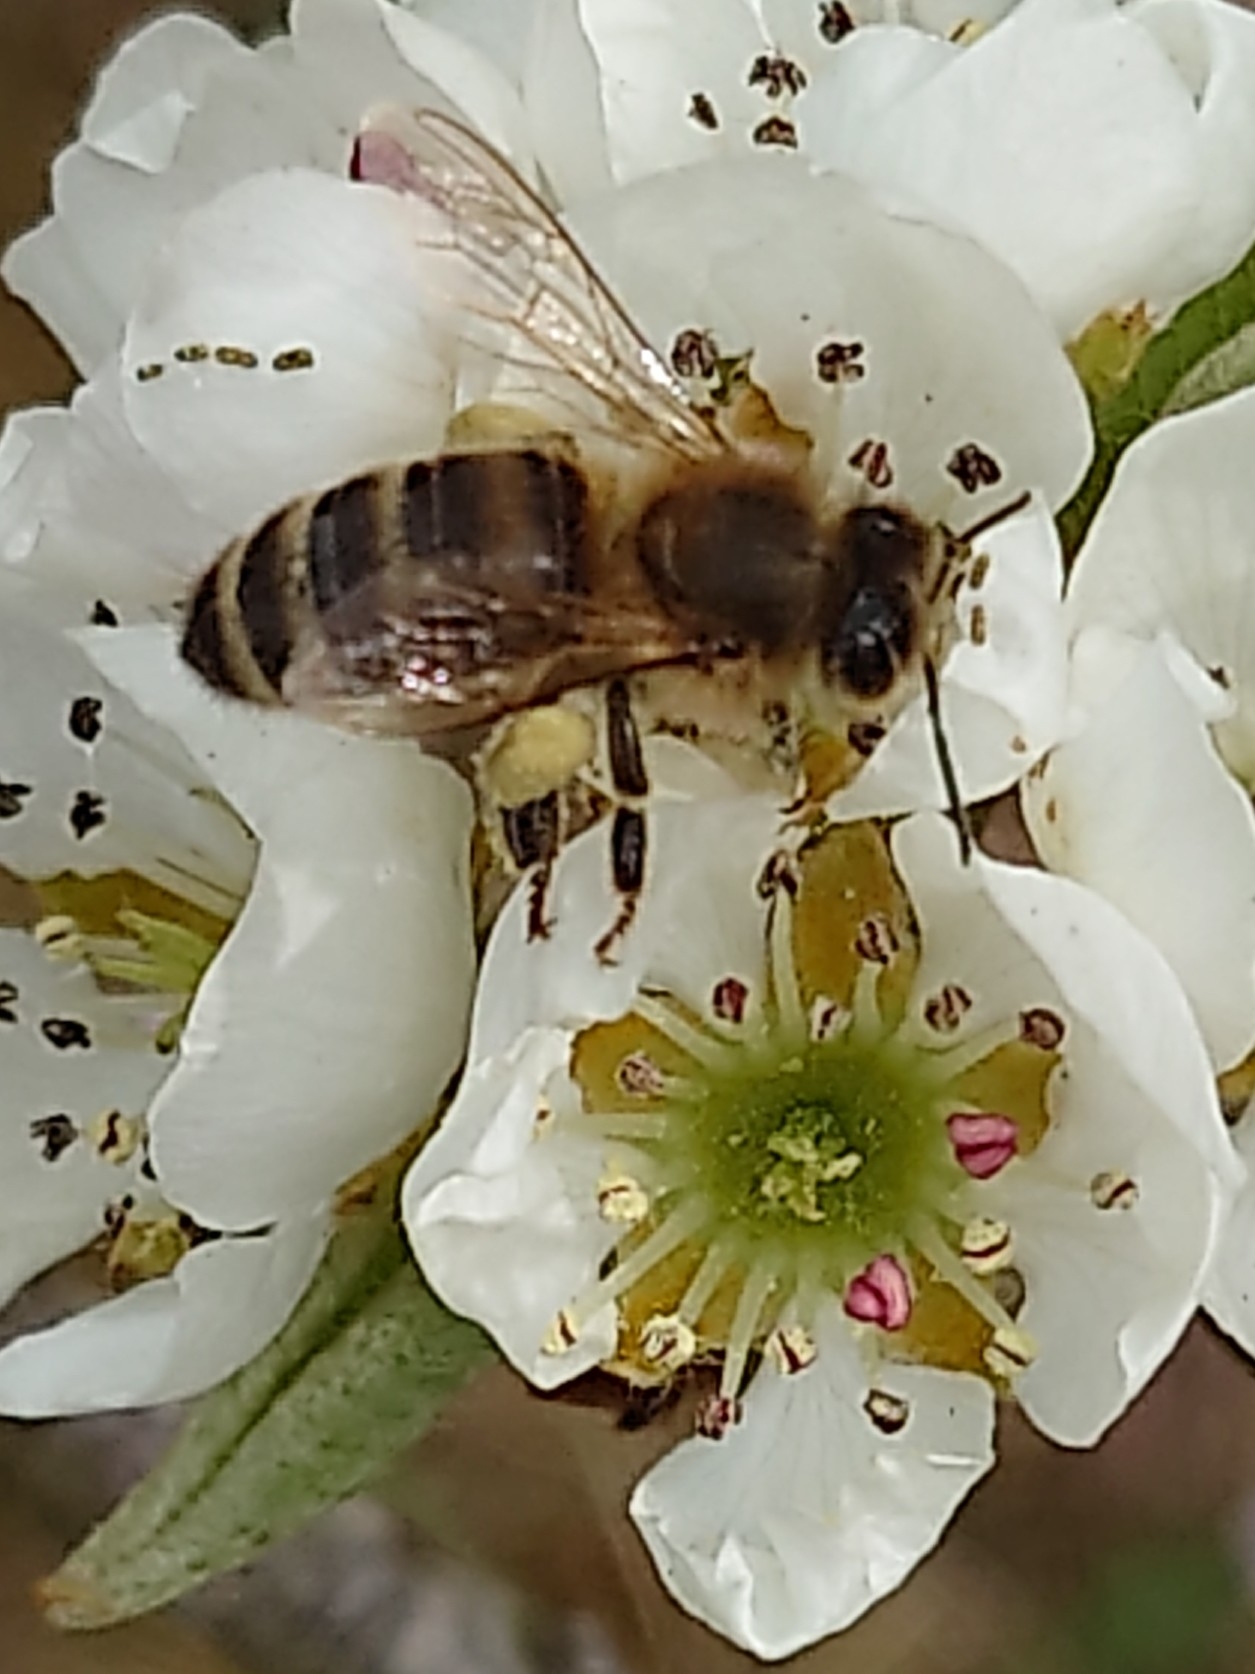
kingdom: Animalia
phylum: Arthropoda
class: Insecta
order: Hymenoptera
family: Apidae
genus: Apis
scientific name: Apis mellifera
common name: Honey bee
